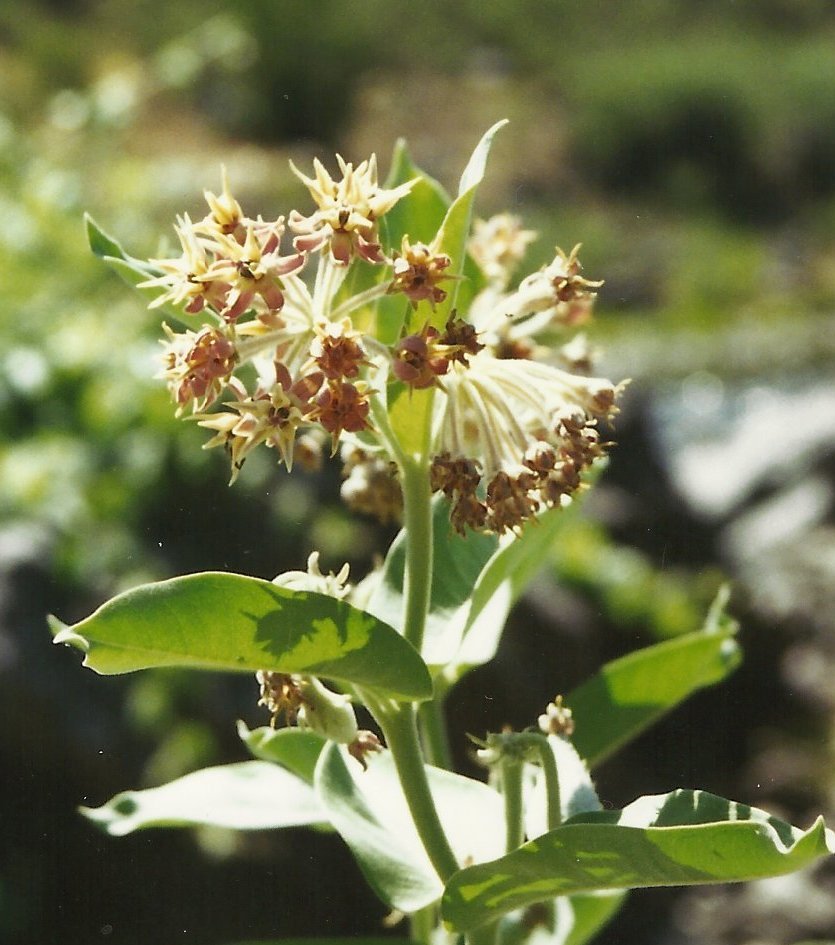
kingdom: Plantae
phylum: Tracheophyta
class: Magnoliopsida
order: Gentianales
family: Apocynaceae
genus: Asclepias
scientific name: Asclepias speciosa
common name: Showy milkweed
